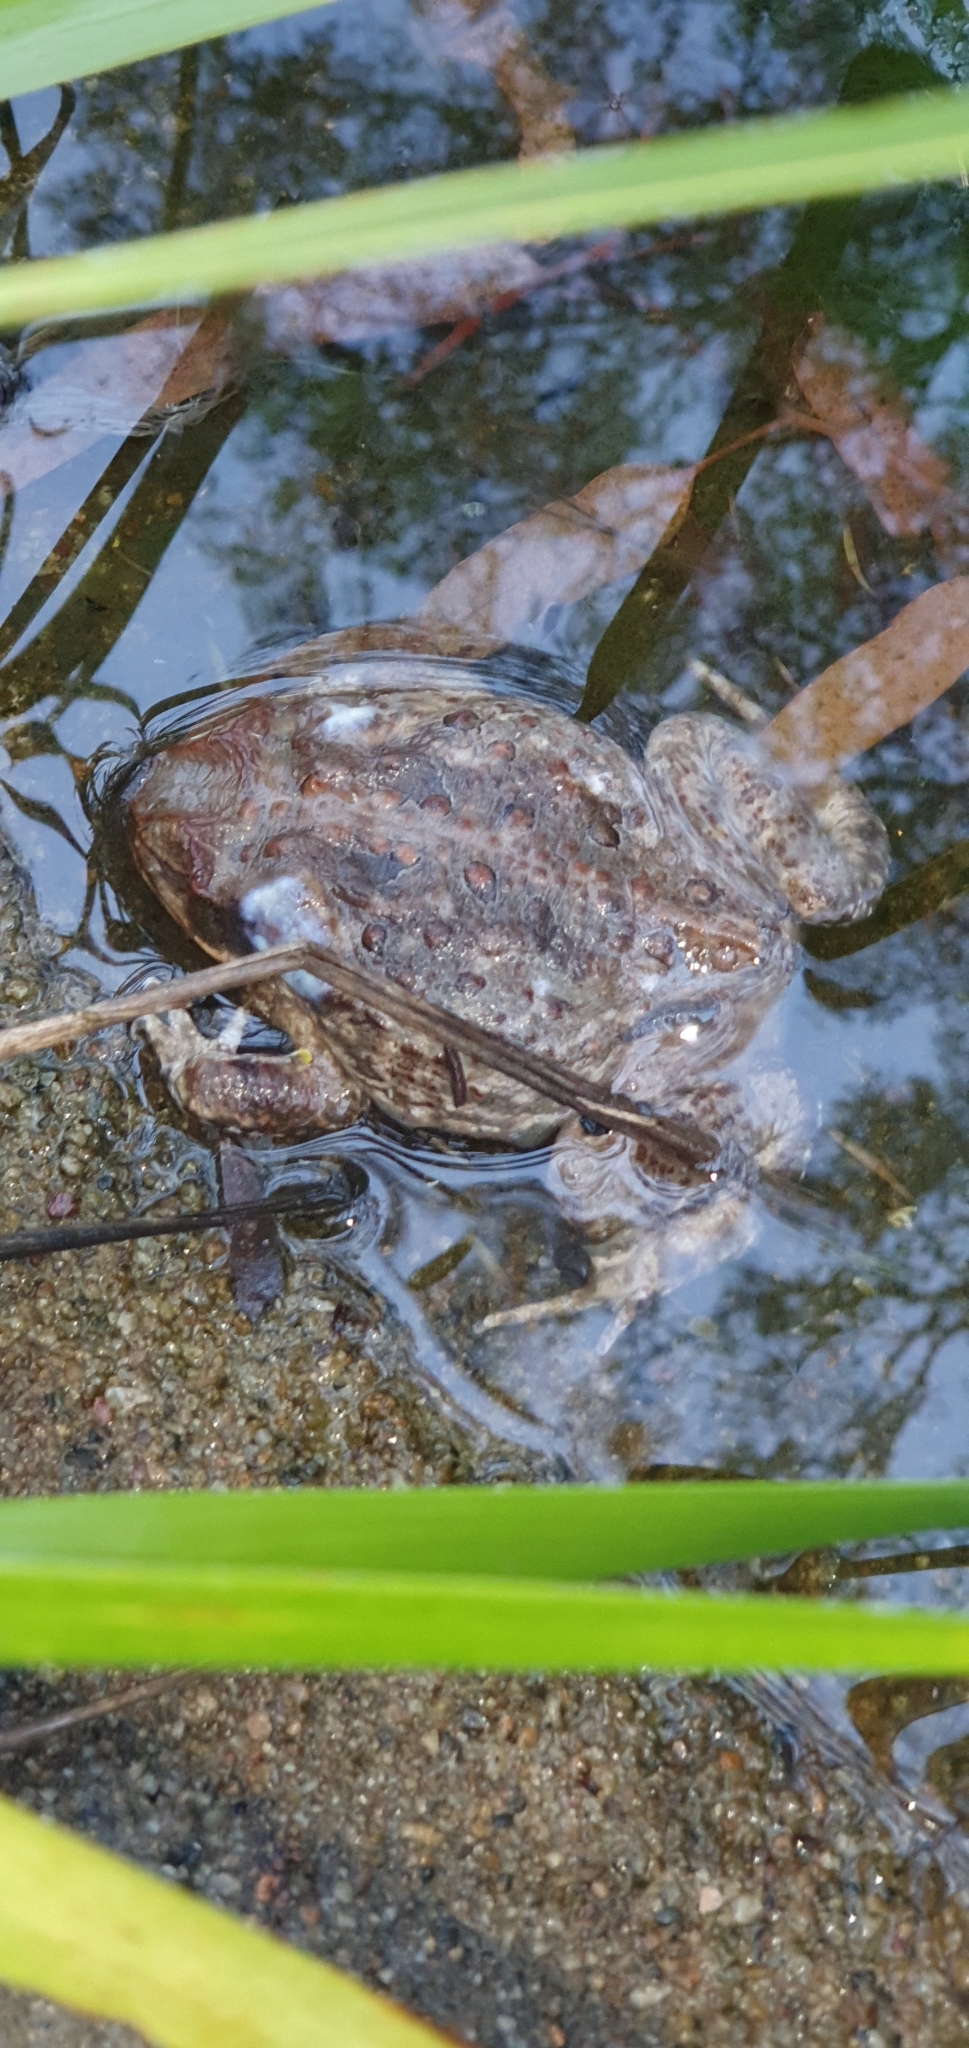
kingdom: Animalia
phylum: Chordata
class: Amphibia
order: Anura
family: Bufonidae
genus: Rhinella
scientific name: Rhinella marina
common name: Cane toad
